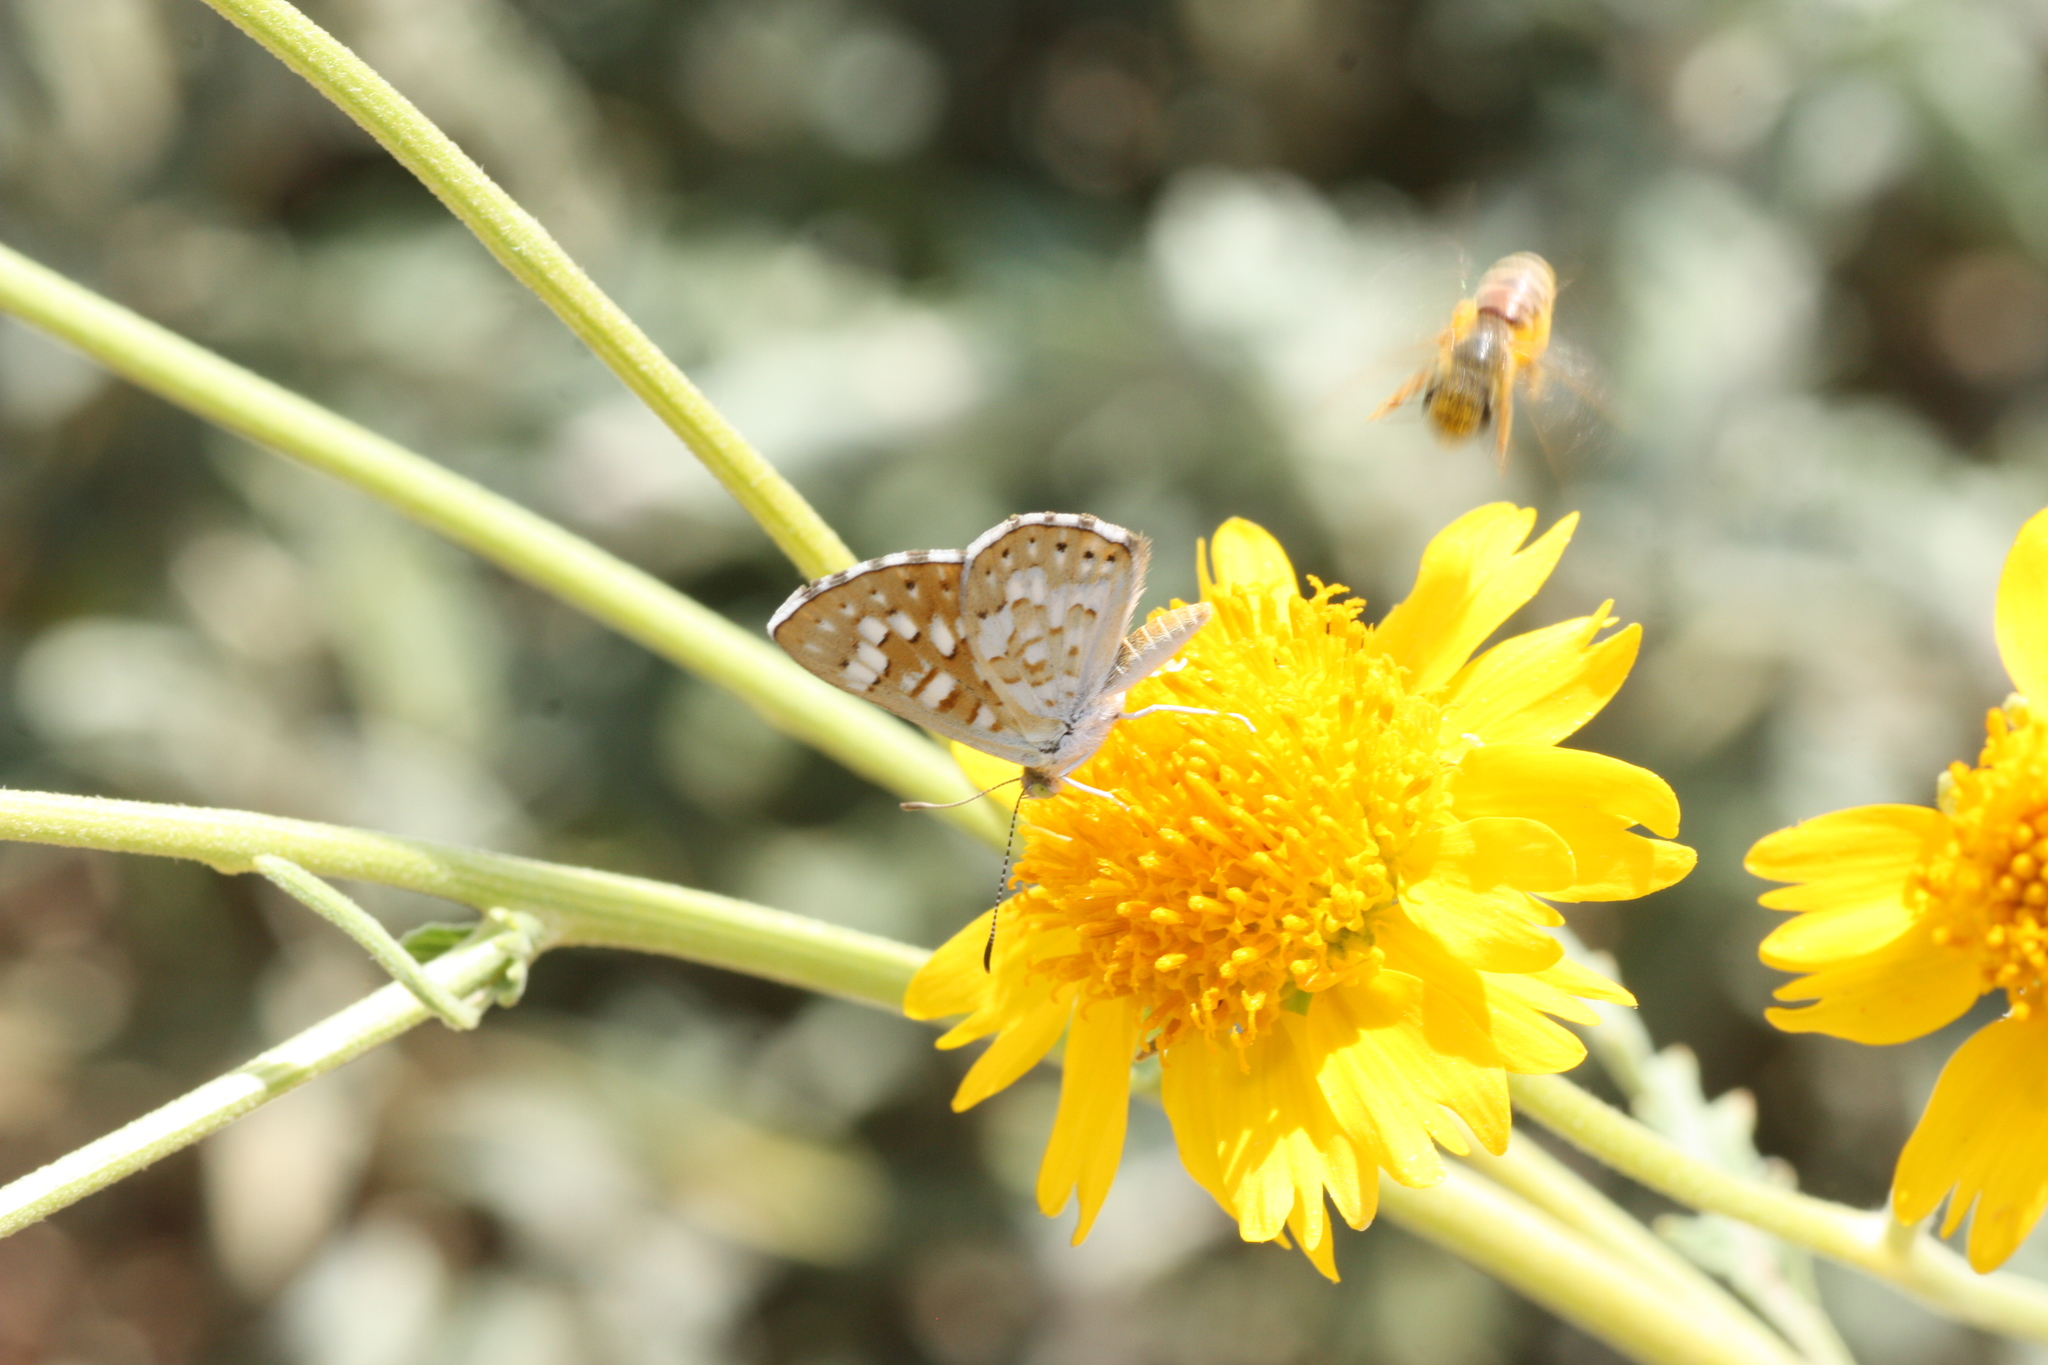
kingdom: Animalia
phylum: Arthropoda
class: Insecta
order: Lepidoptera
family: Riodinidae
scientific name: Riodinidae
